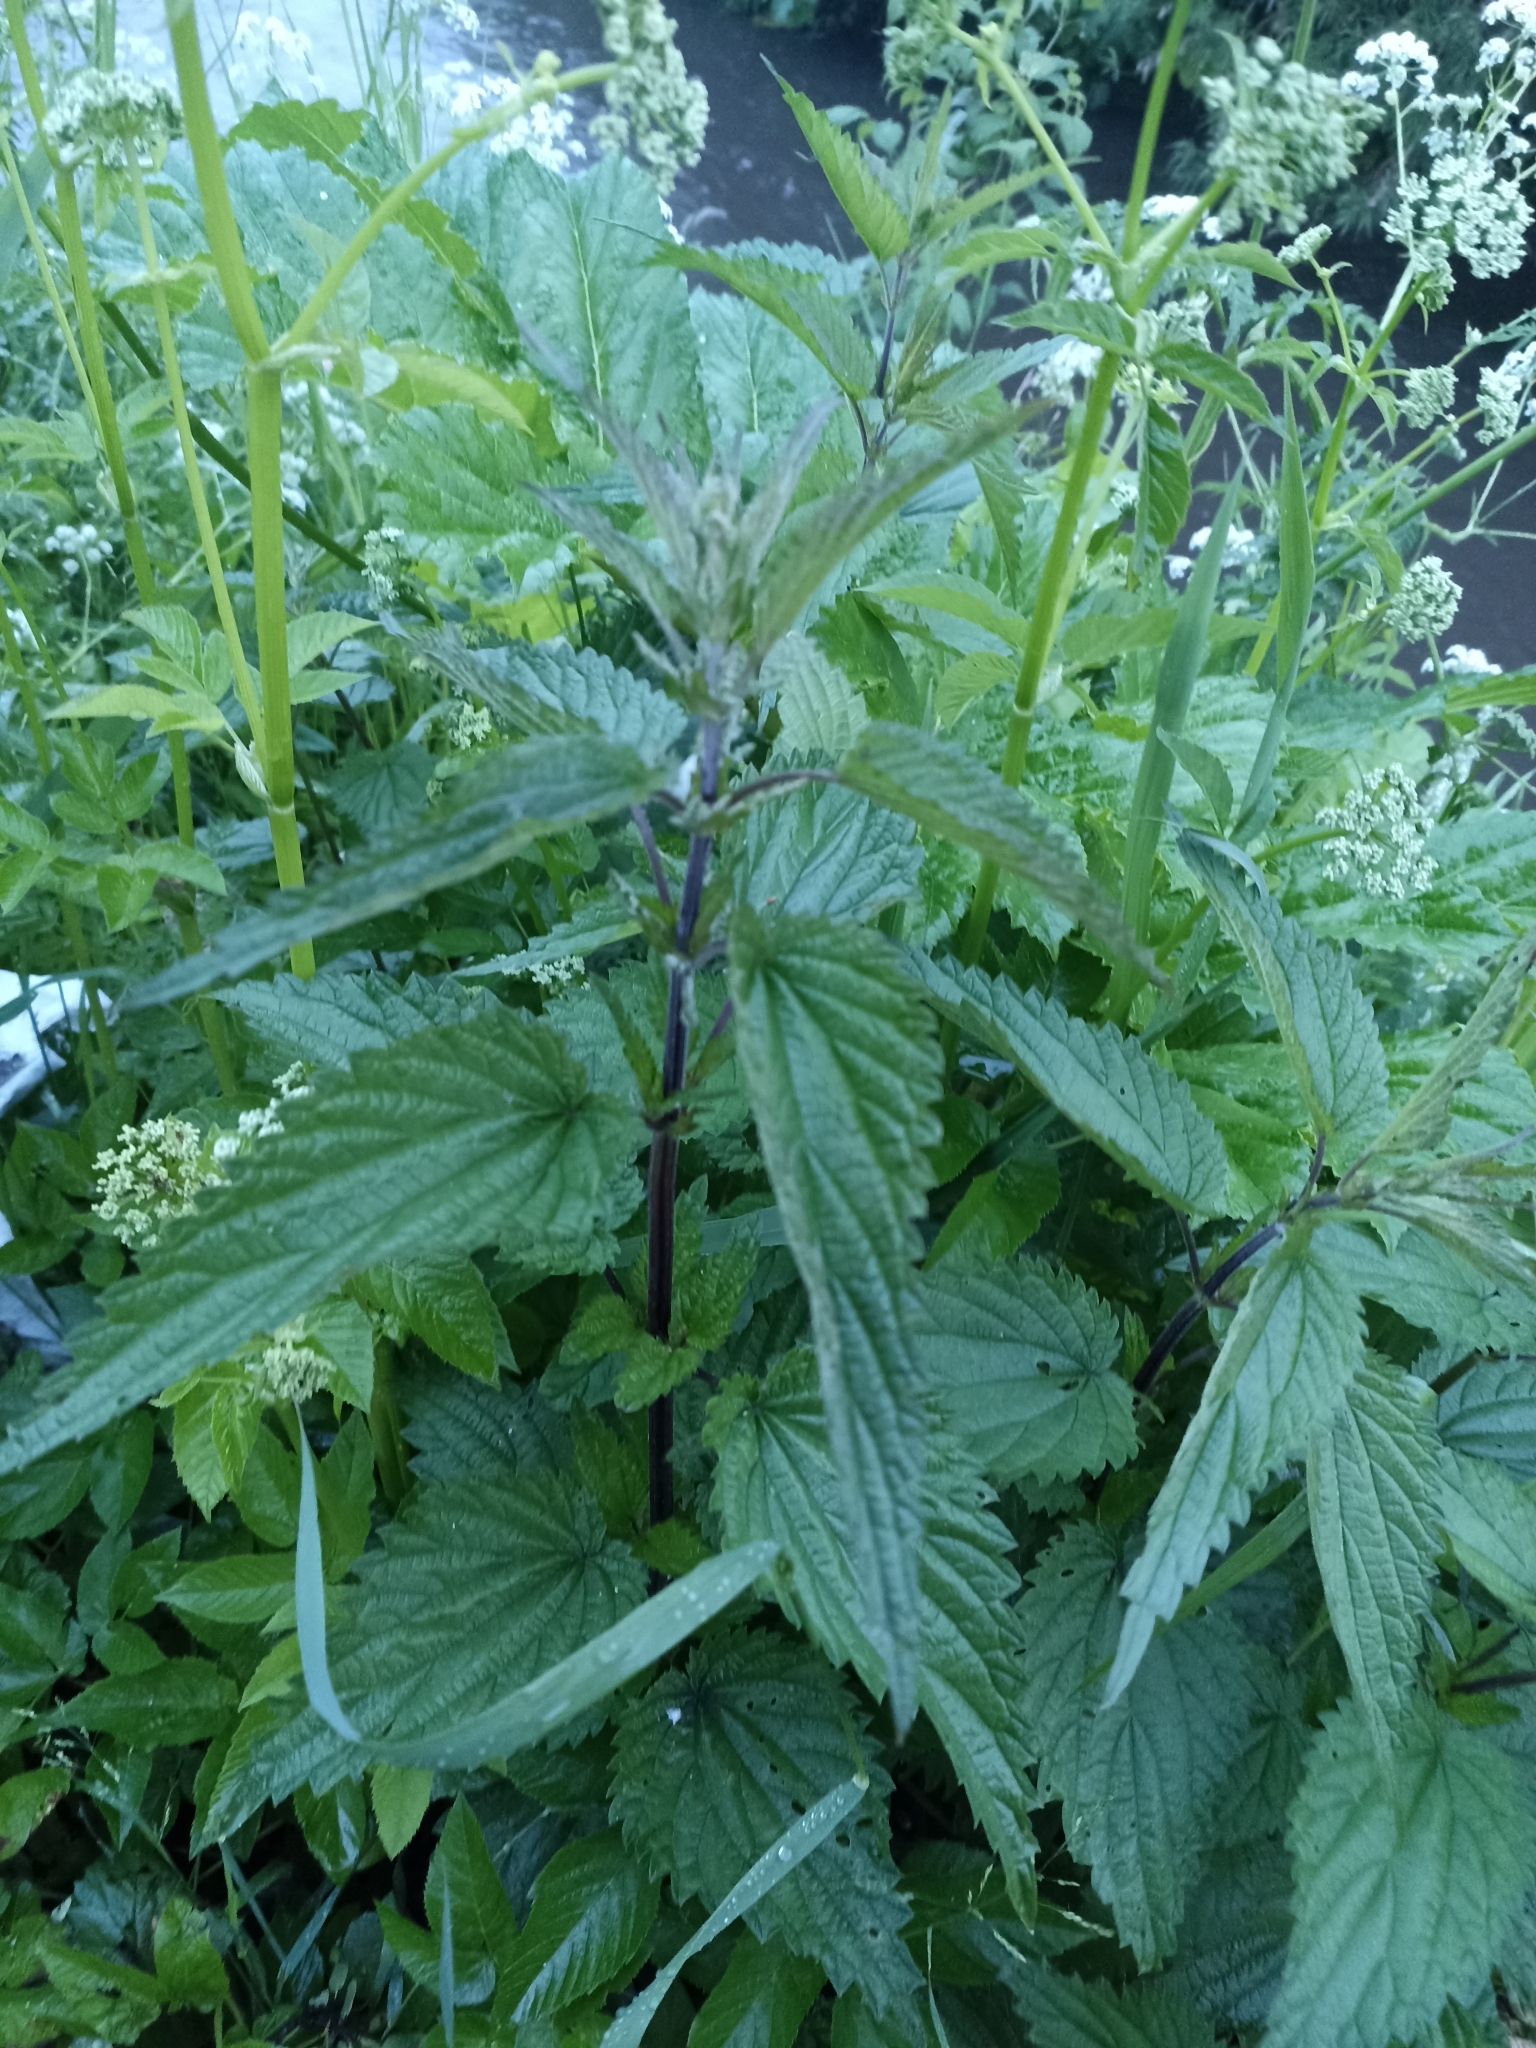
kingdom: Plantae
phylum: Tracheophyta
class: Magnoliopsida
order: Rosales
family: Urticaceae
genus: Urtica
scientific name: Urtica dioica
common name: Common nettle
